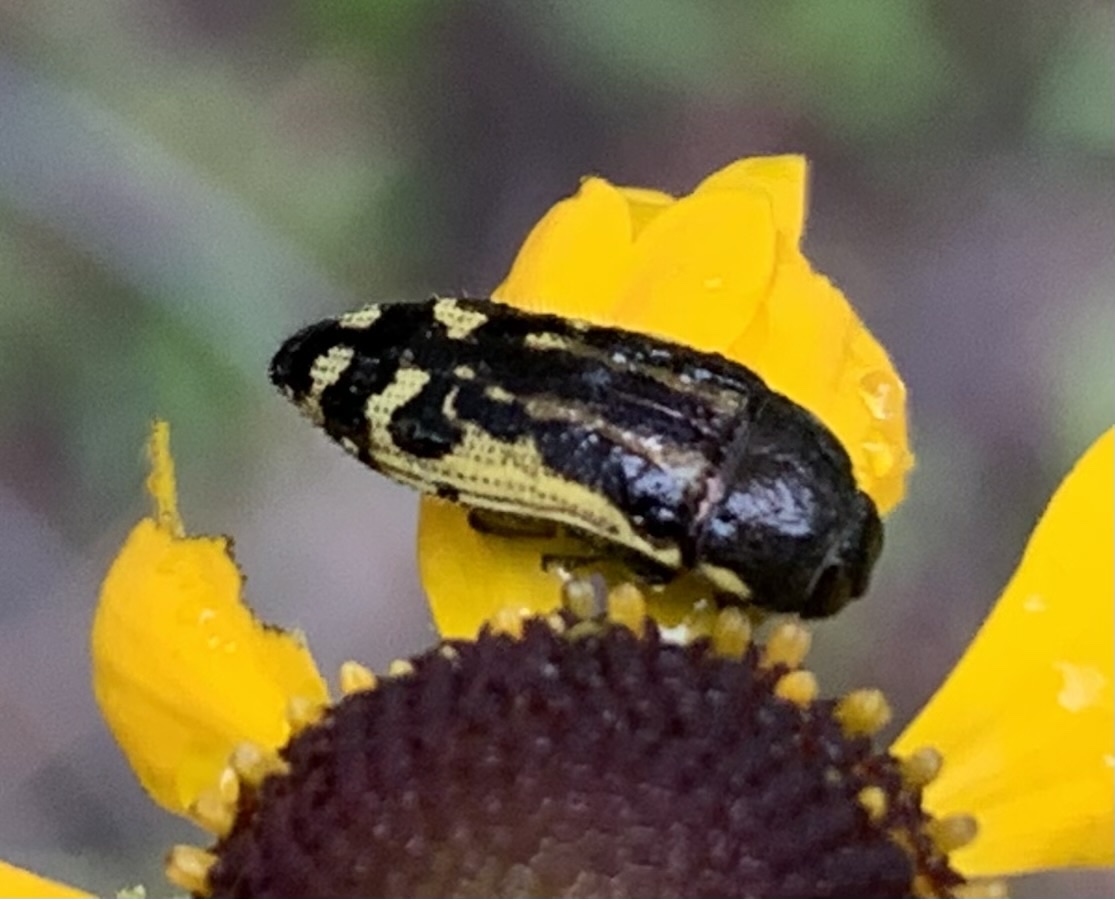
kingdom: Animalia
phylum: Arthropoda
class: Insecta
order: Coleoptera
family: Buprestidae
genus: Acmaeodera
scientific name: Acmaeodera pulchella
